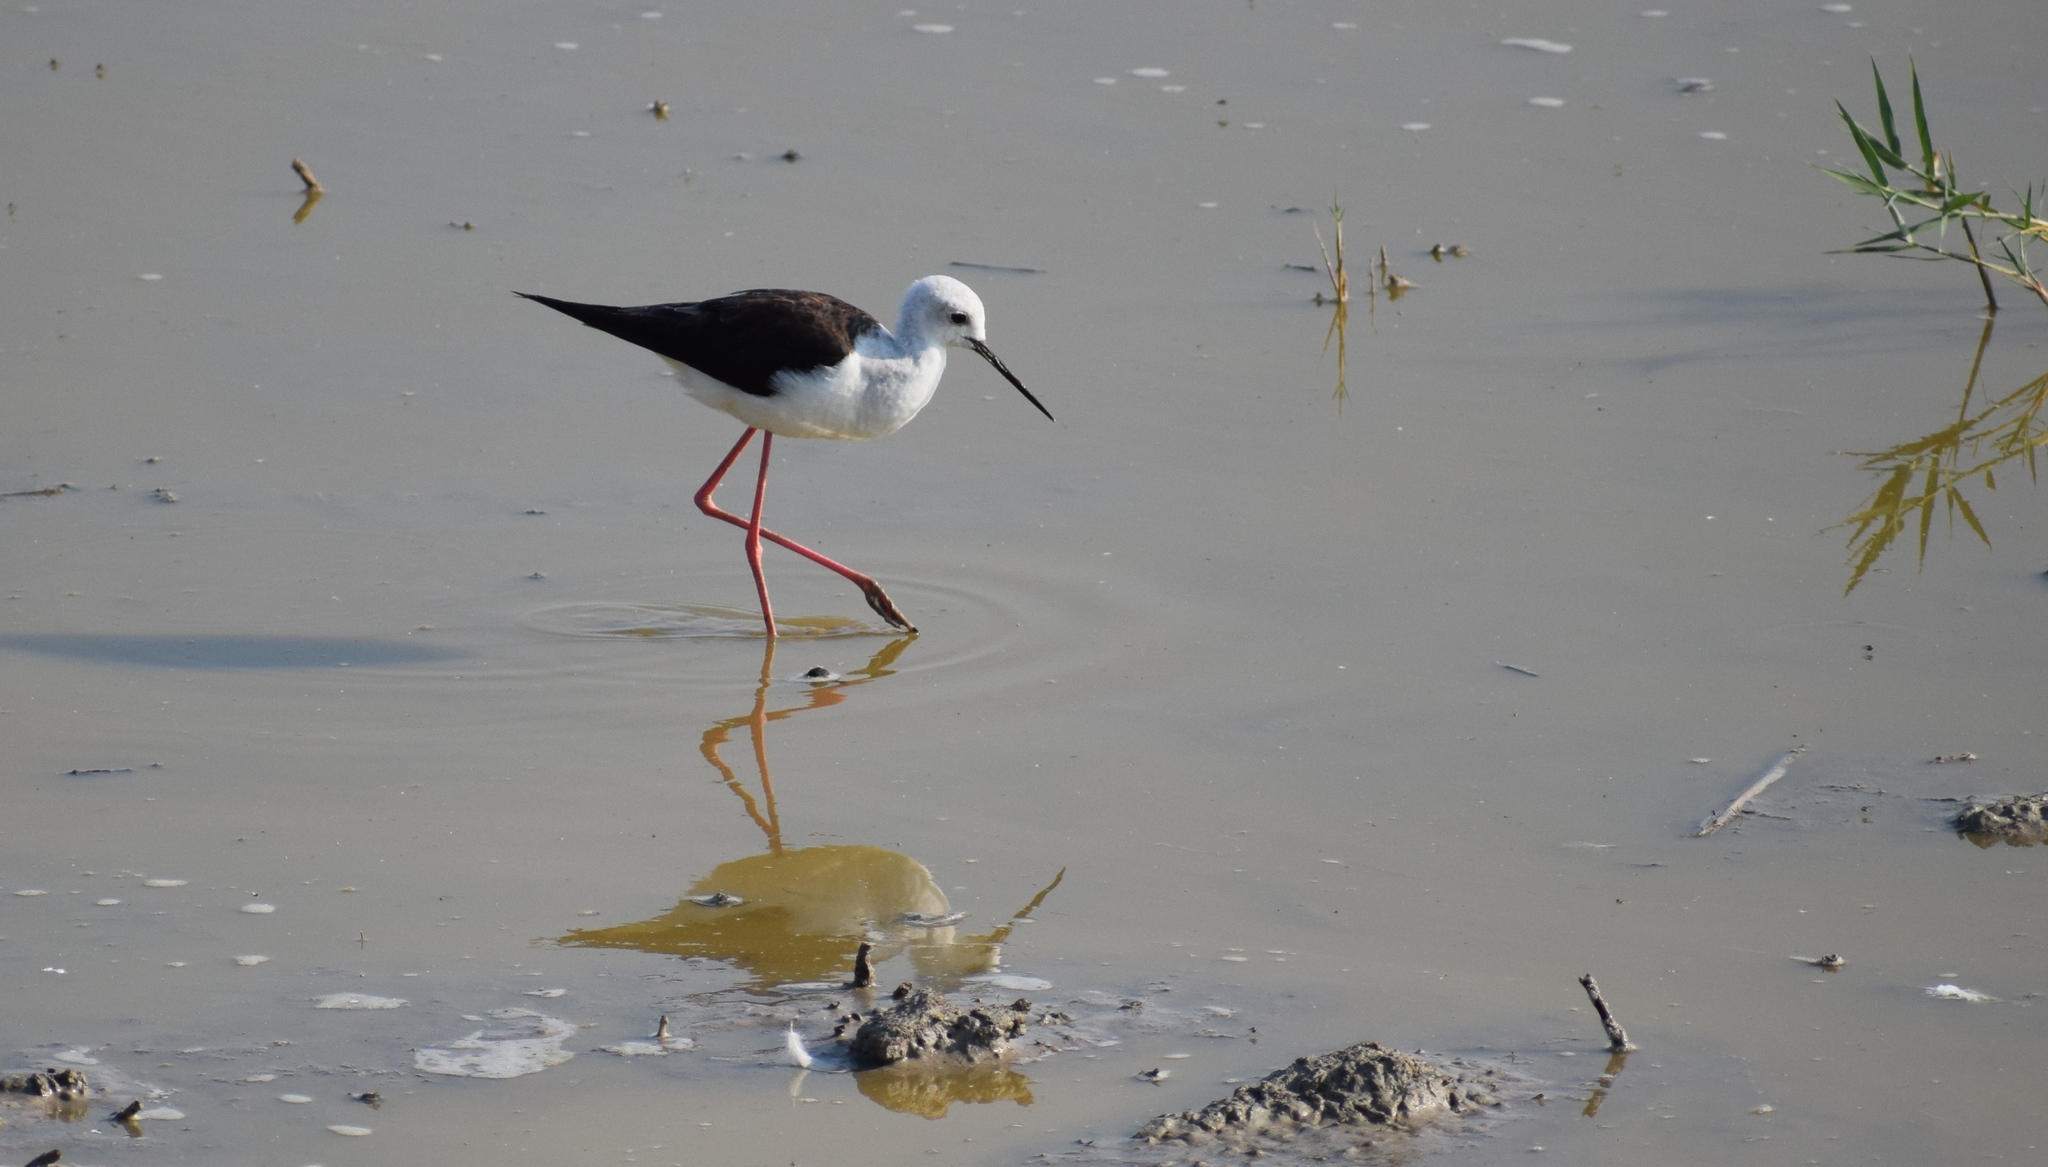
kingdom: Animalia
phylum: Chordata
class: Aves
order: Charadriiformes
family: Recurvirostridae
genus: Himantopus
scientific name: Himantopus himantopus
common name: Black-winged stilt
